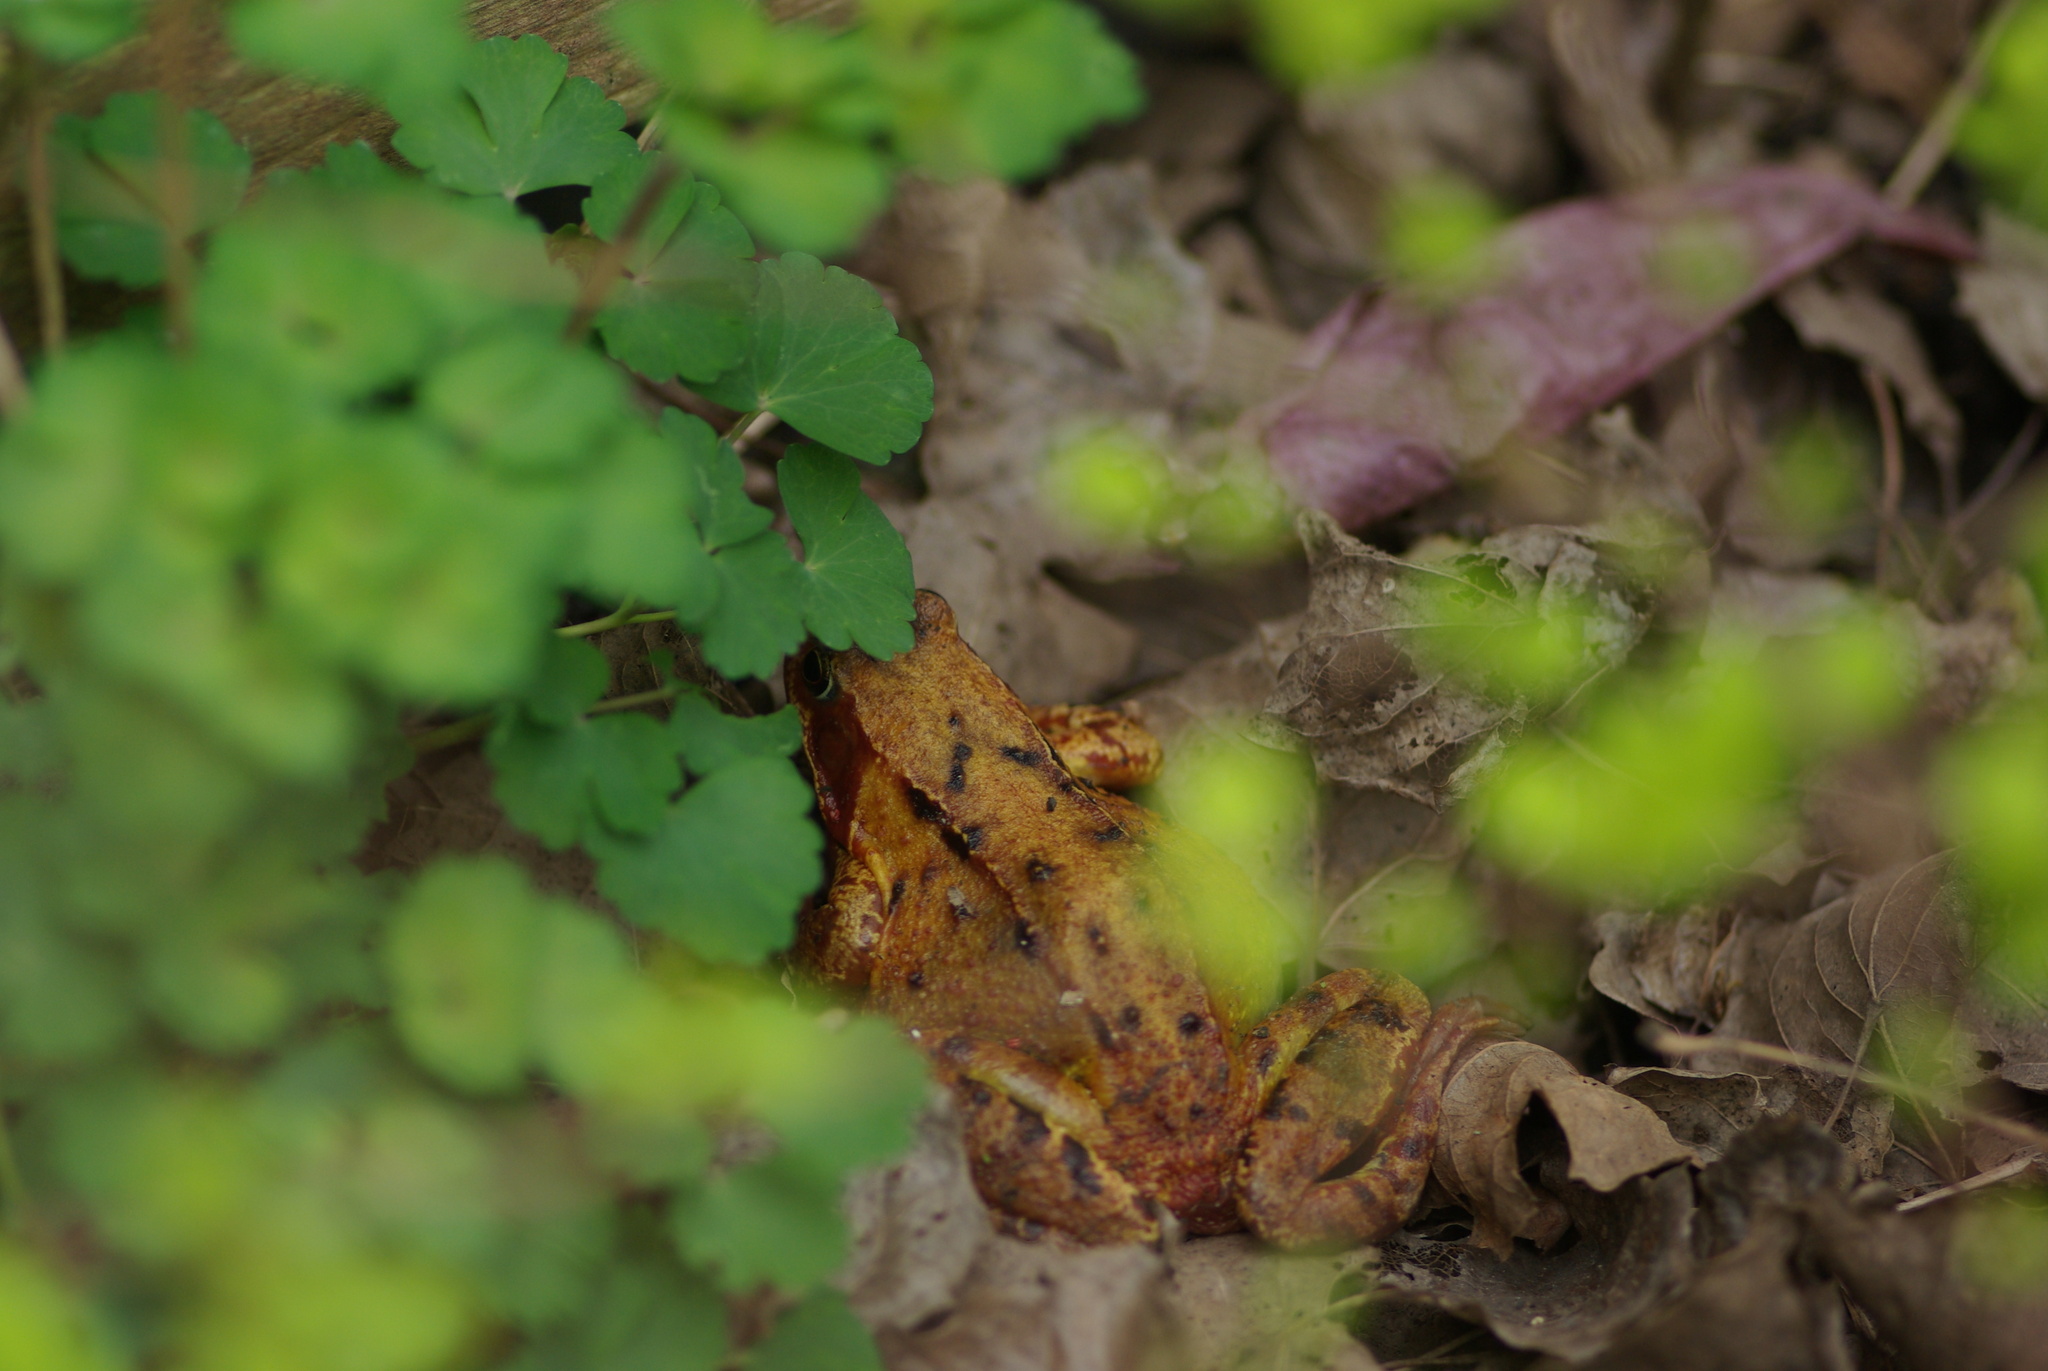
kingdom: Animalia
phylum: Chordata
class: Amphibia
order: Anura
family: Ranidae
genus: Rana
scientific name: Rana temporaria
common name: Common frog
